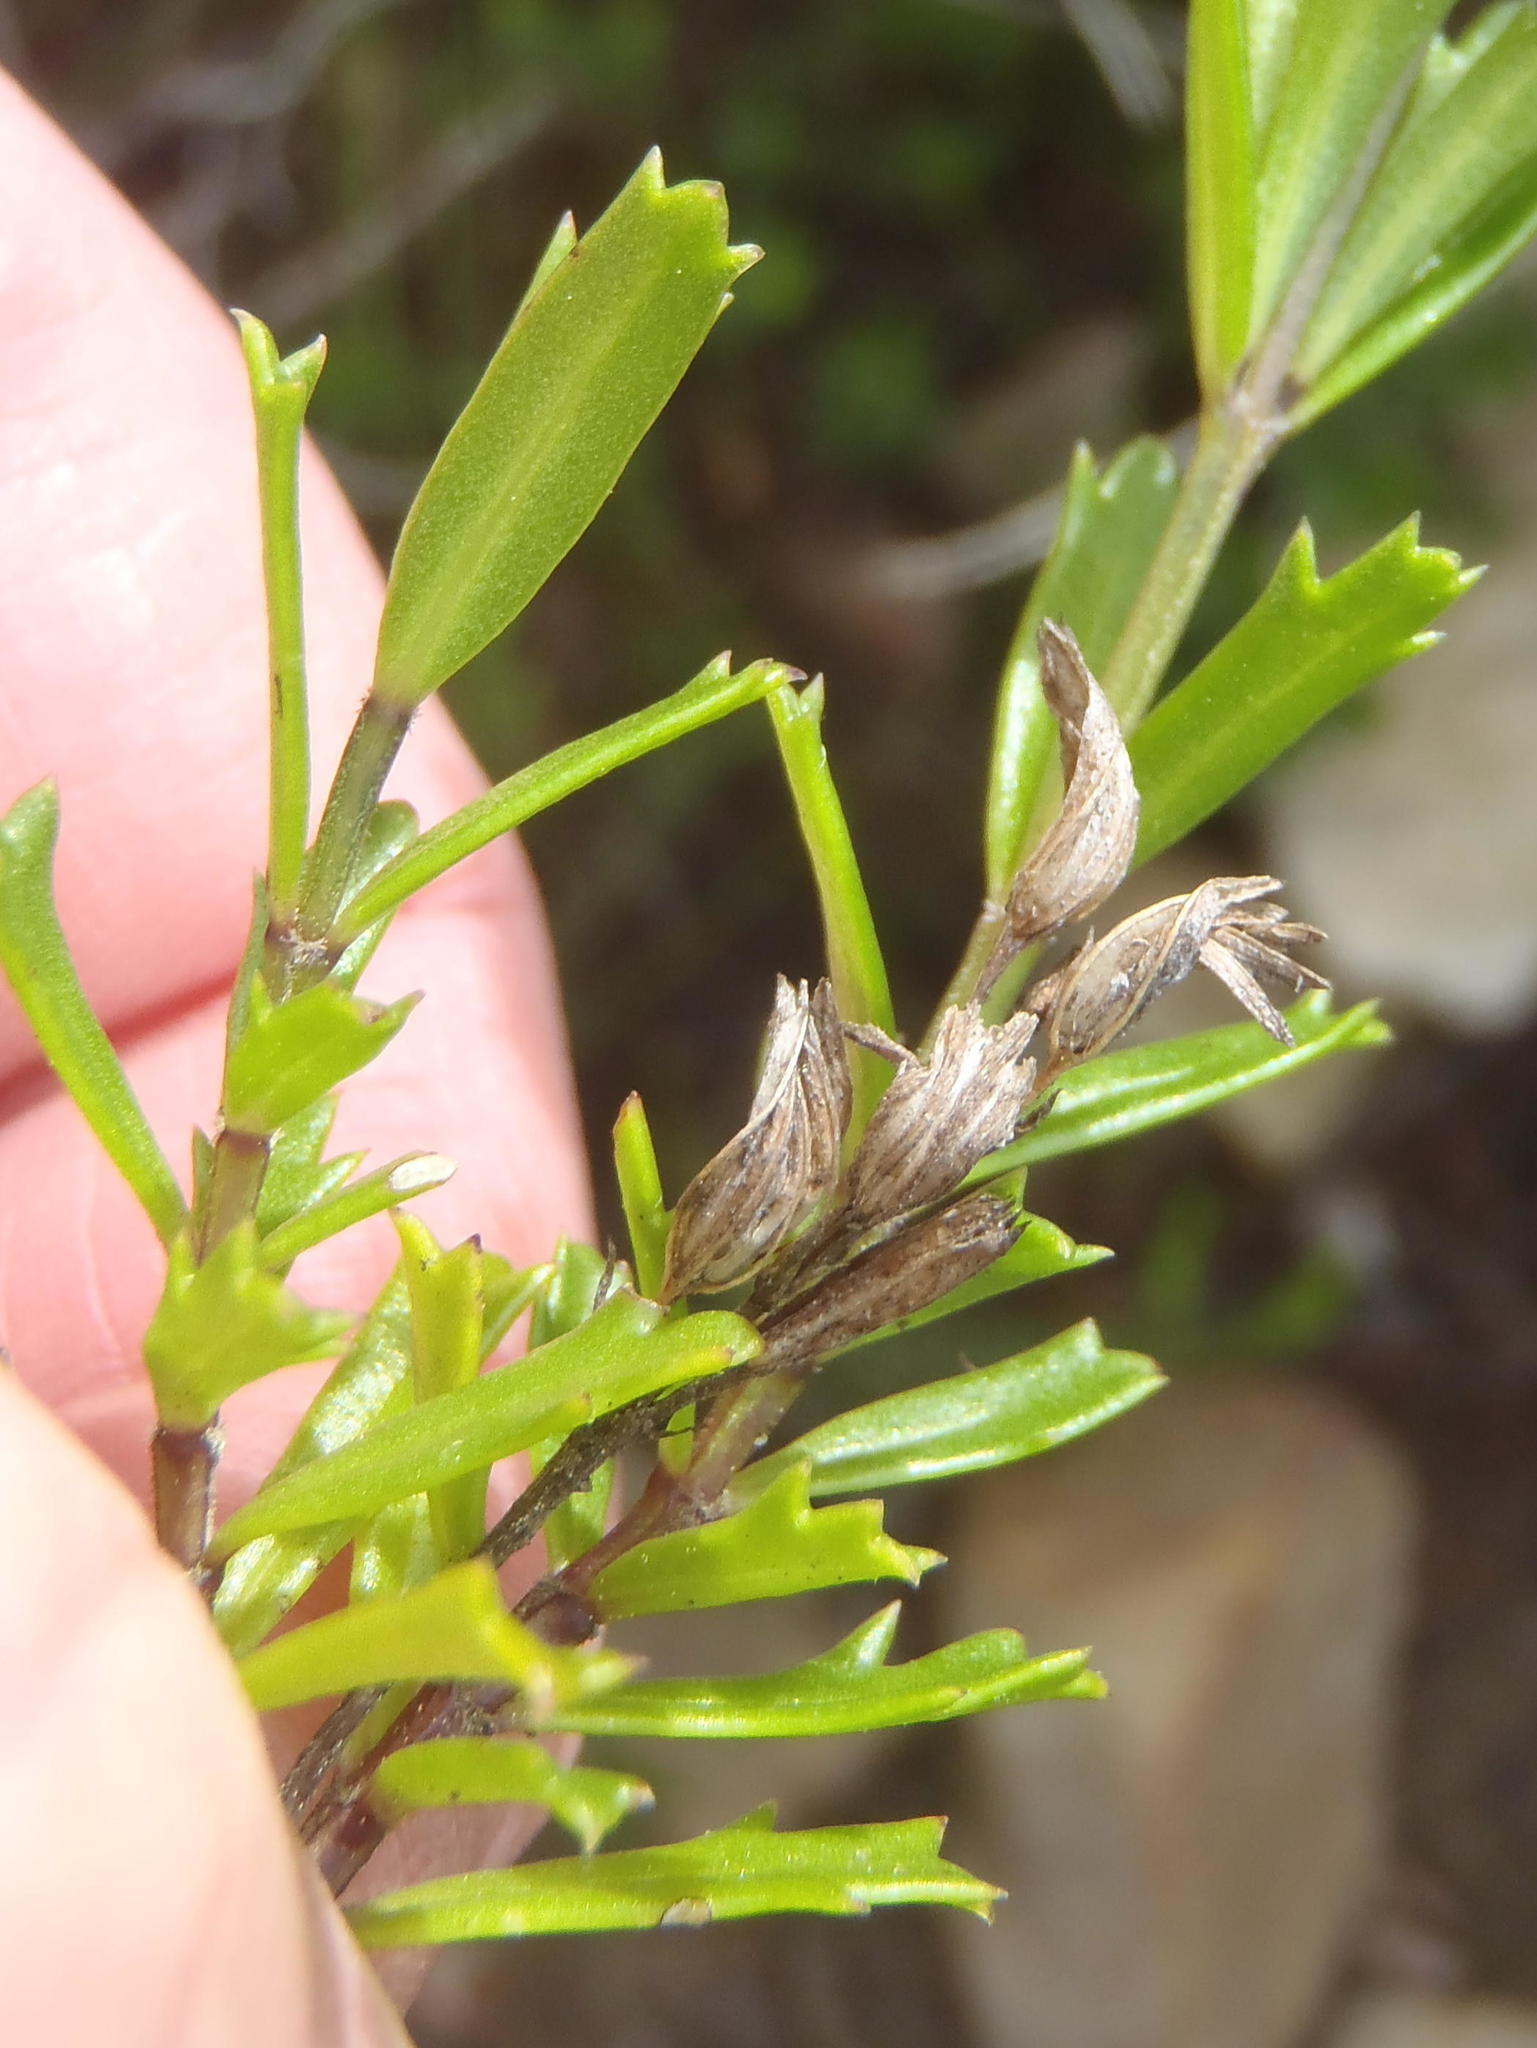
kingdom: Plantae
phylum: Tracheophyta
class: Magnoliopsida
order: Lamiales
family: Verbenaceae
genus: Chascanum
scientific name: Chascanum cernuum
